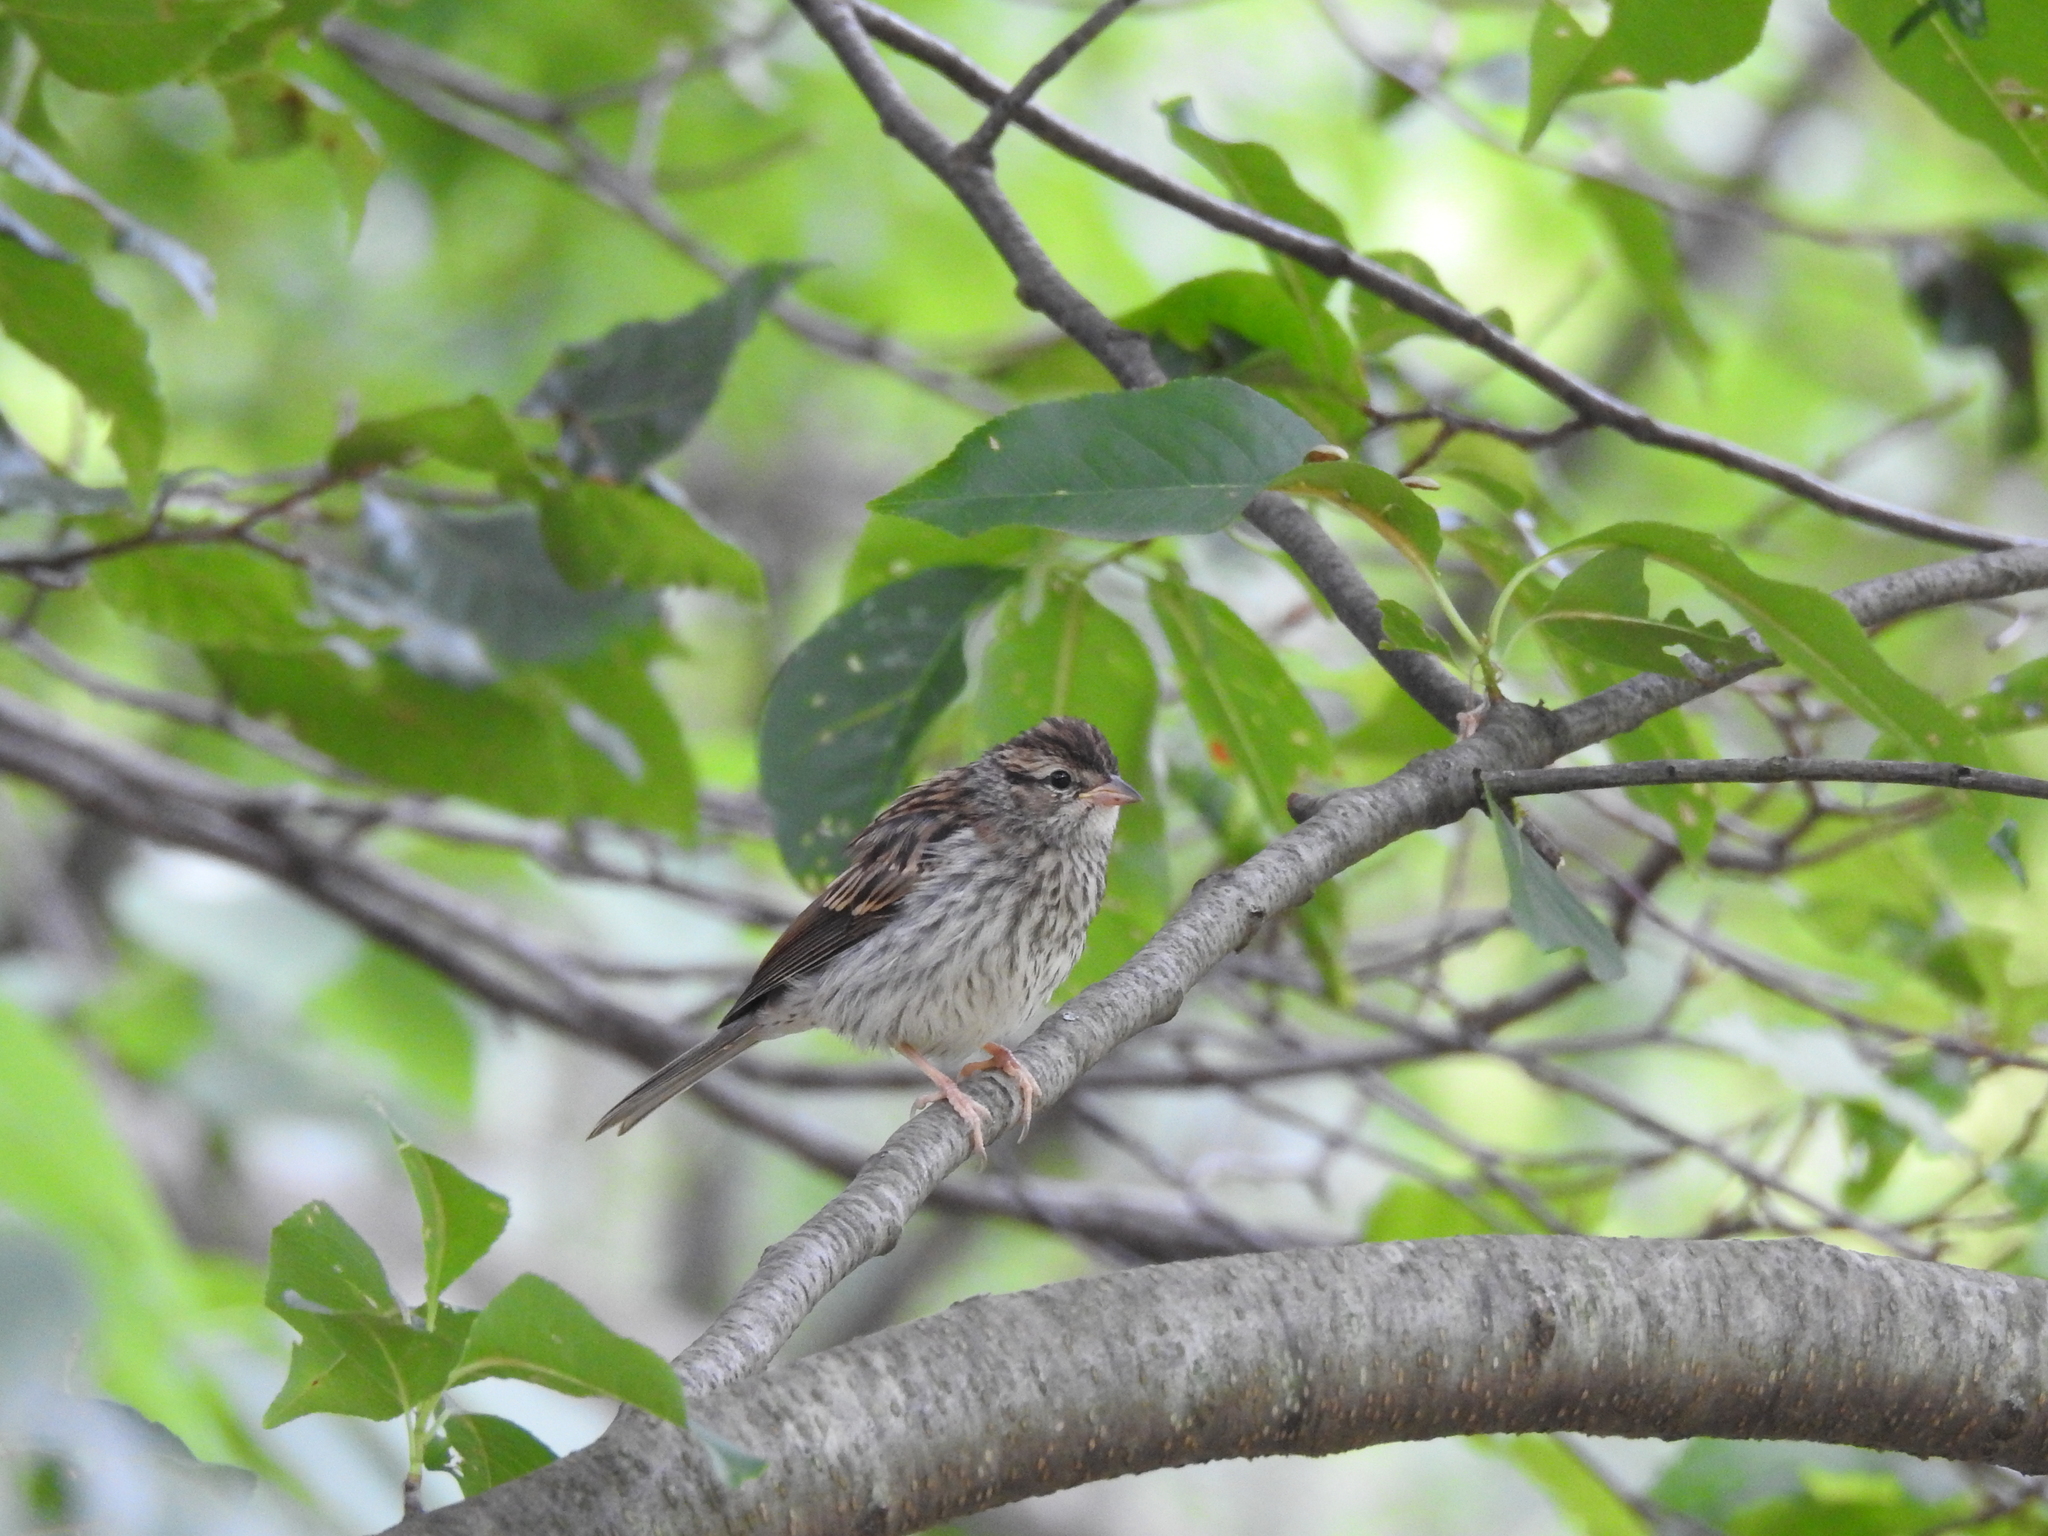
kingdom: Animalia
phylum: Chordata
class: Aves
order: Passeriformes
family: Passerellidae
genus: Spizella
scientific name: Spizella passerina
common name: Chipping sparrow
